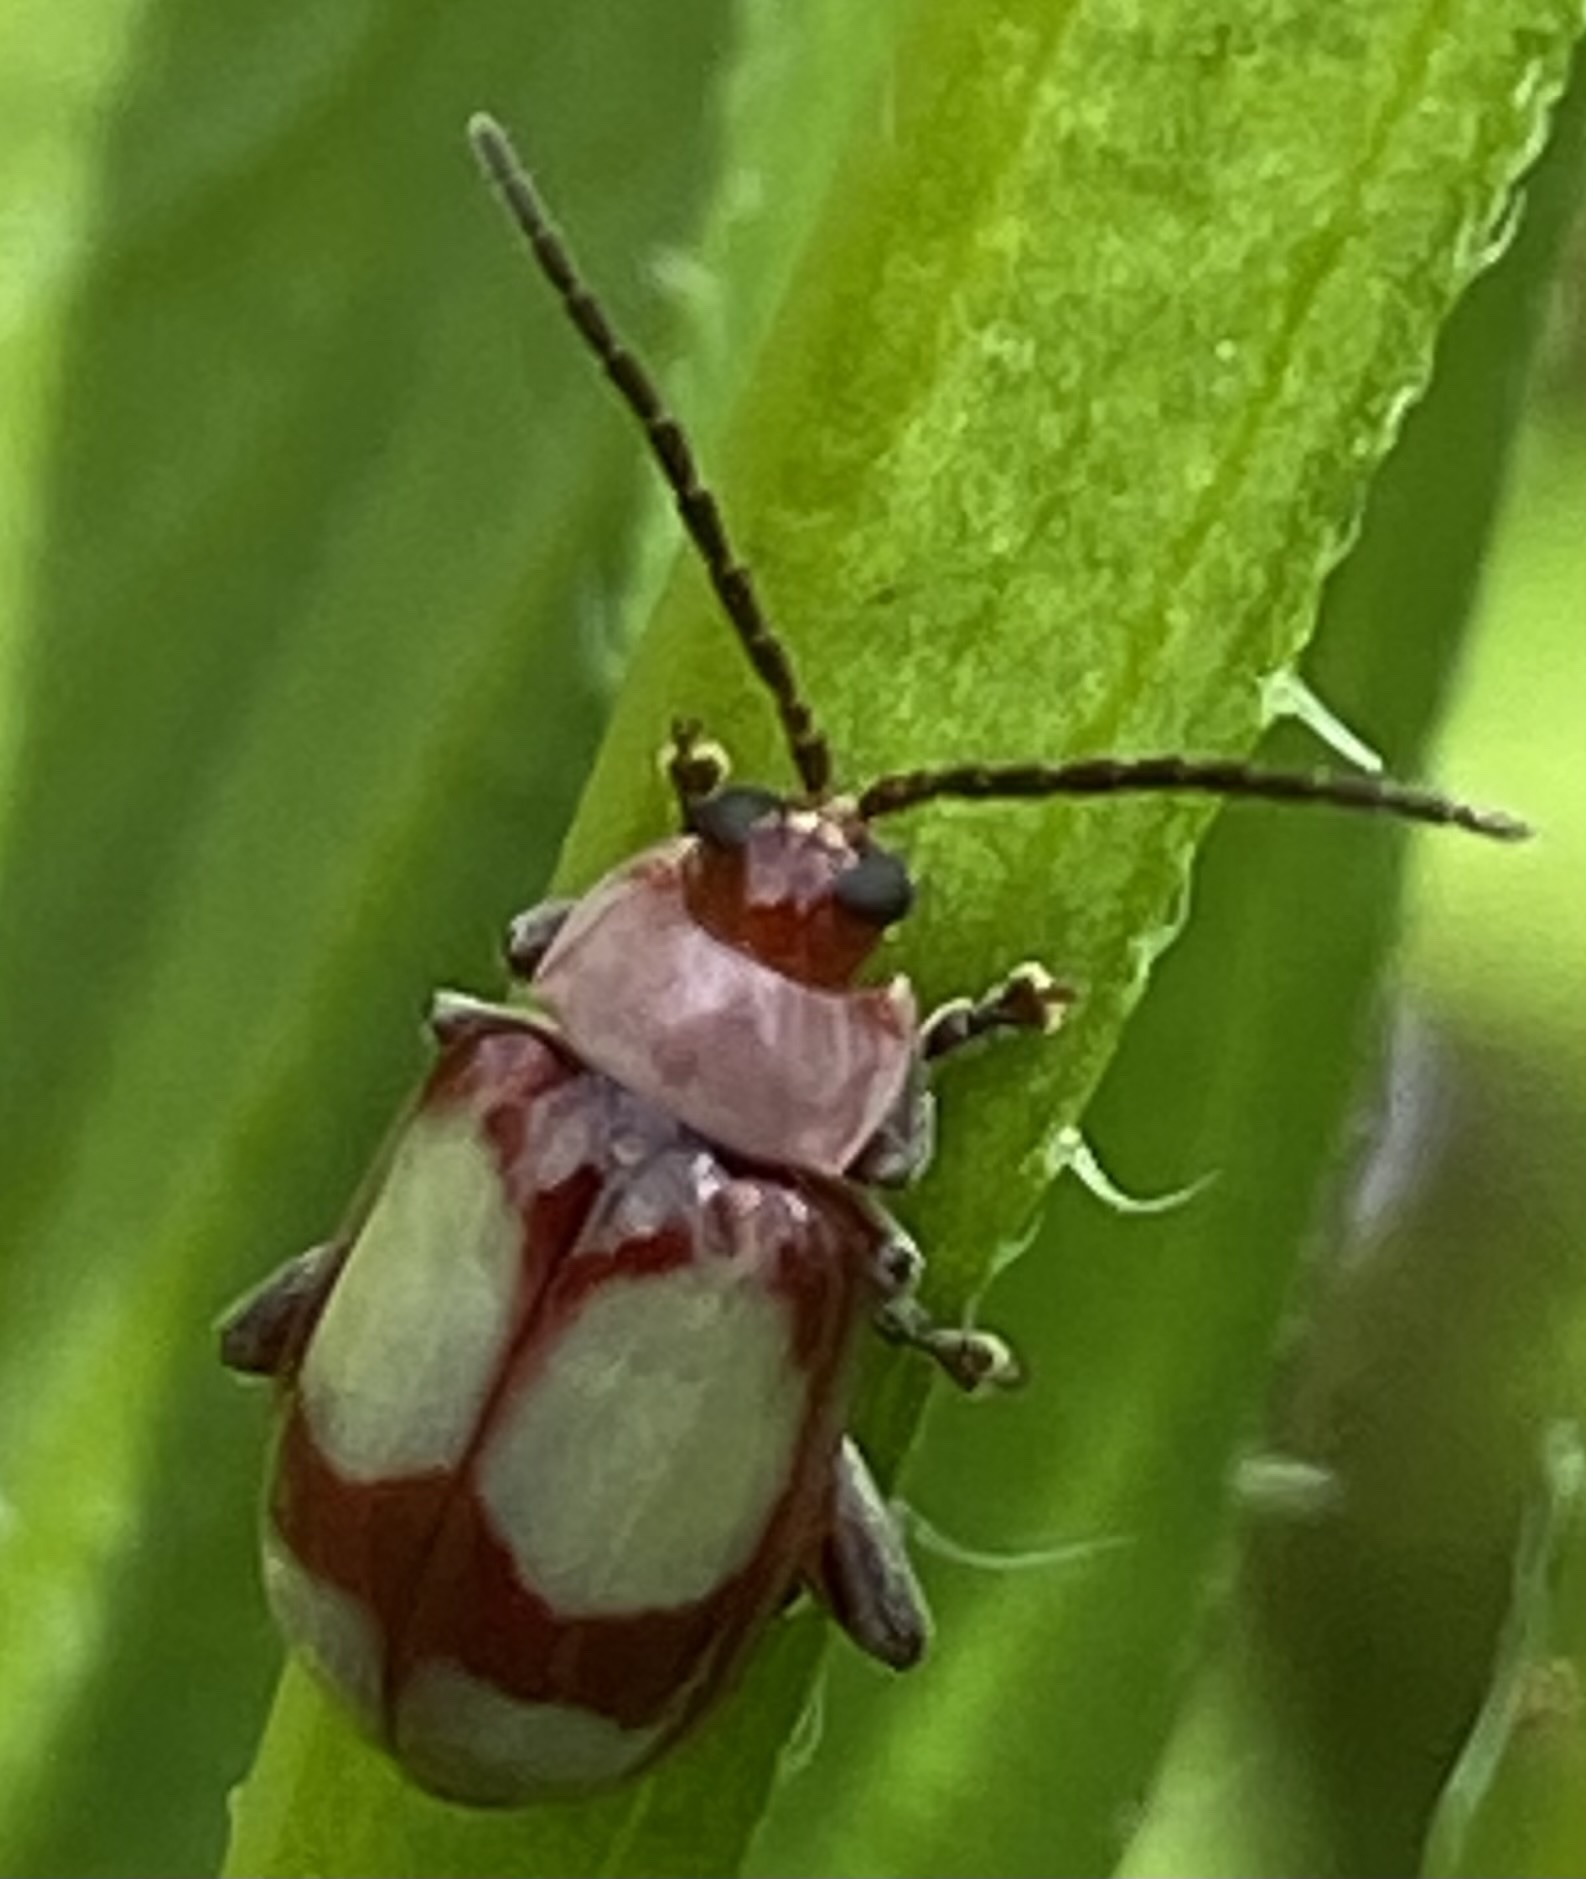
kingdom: Animalia
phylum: Arthropoda
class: Insecta
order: Coleoptera
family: Chrysomelidae
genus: Omophoita
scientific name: Omophoita
